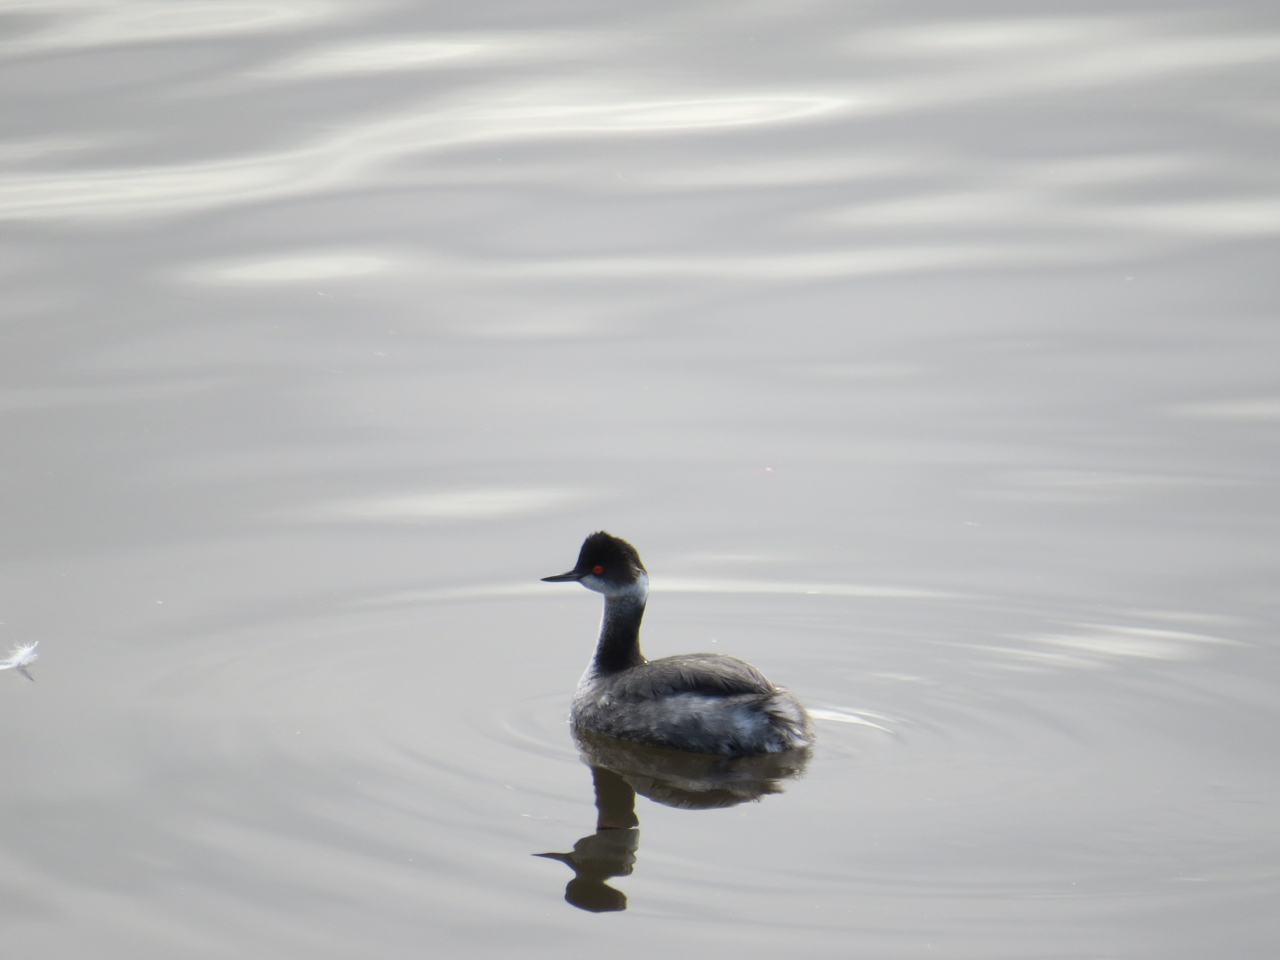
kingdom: Animalia
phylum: Chordata
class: Aves
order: Podicipediformes
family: Podicipedidae
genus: Podiceps
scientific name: Podiceps nigricollis
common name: Black-necked grebe
